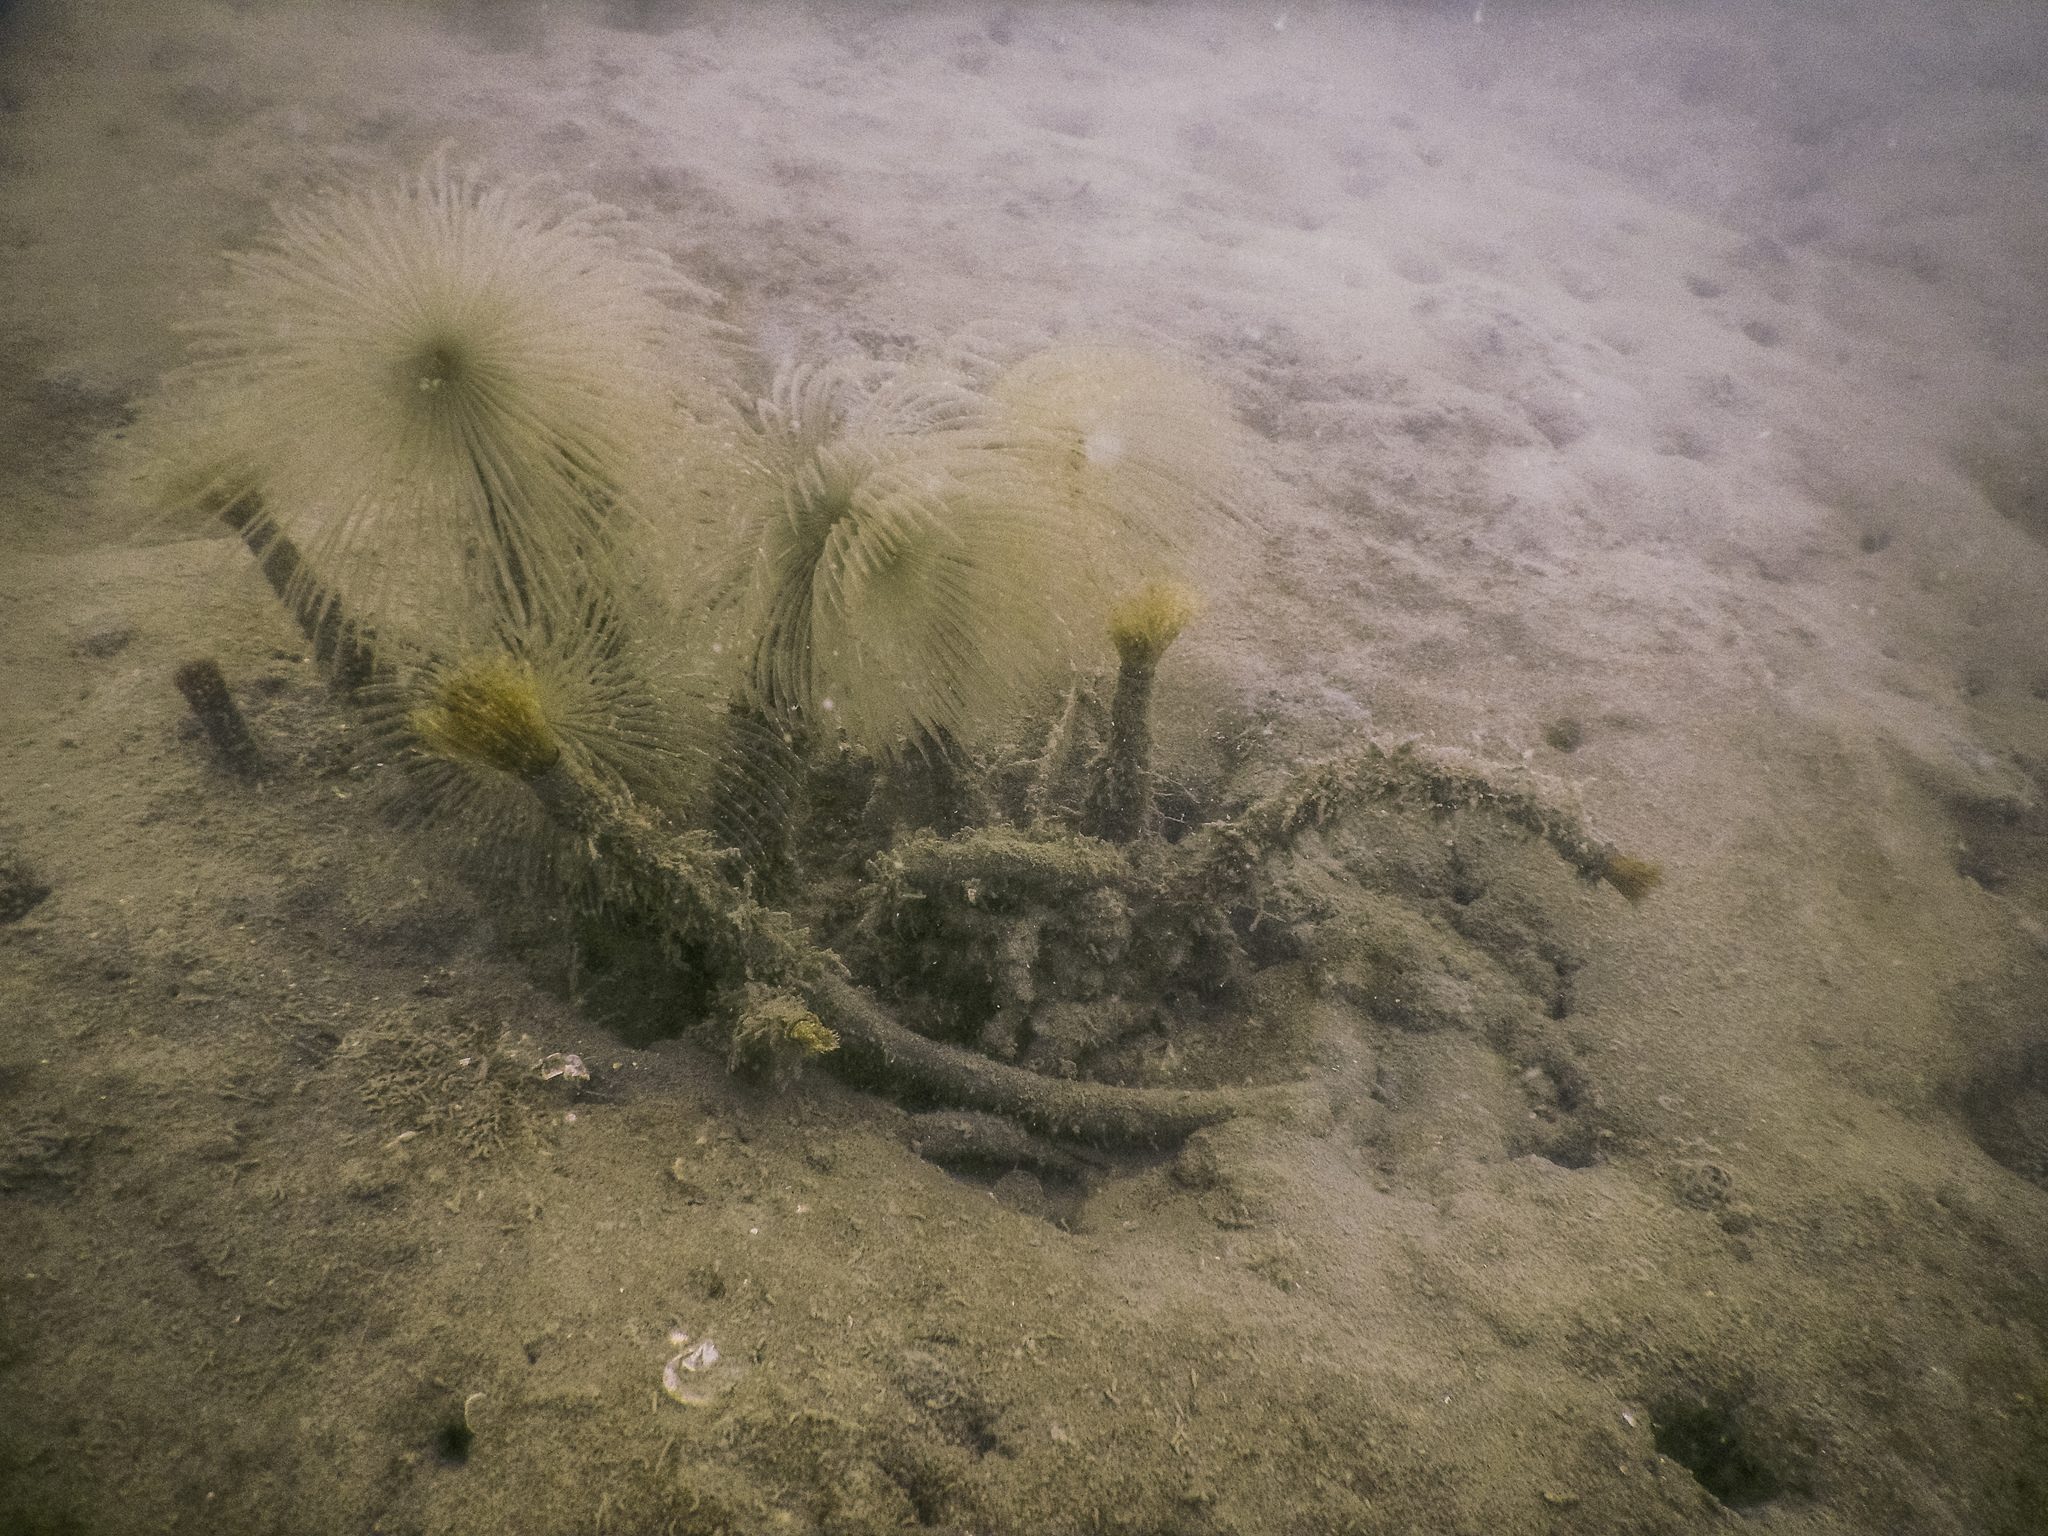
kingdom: Animalia
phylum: Annelida
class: Polychaeta
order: Sabellida
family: Sabellidae
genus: Sabella
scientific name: Sabella spallanzanii
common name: Feather duster worm
